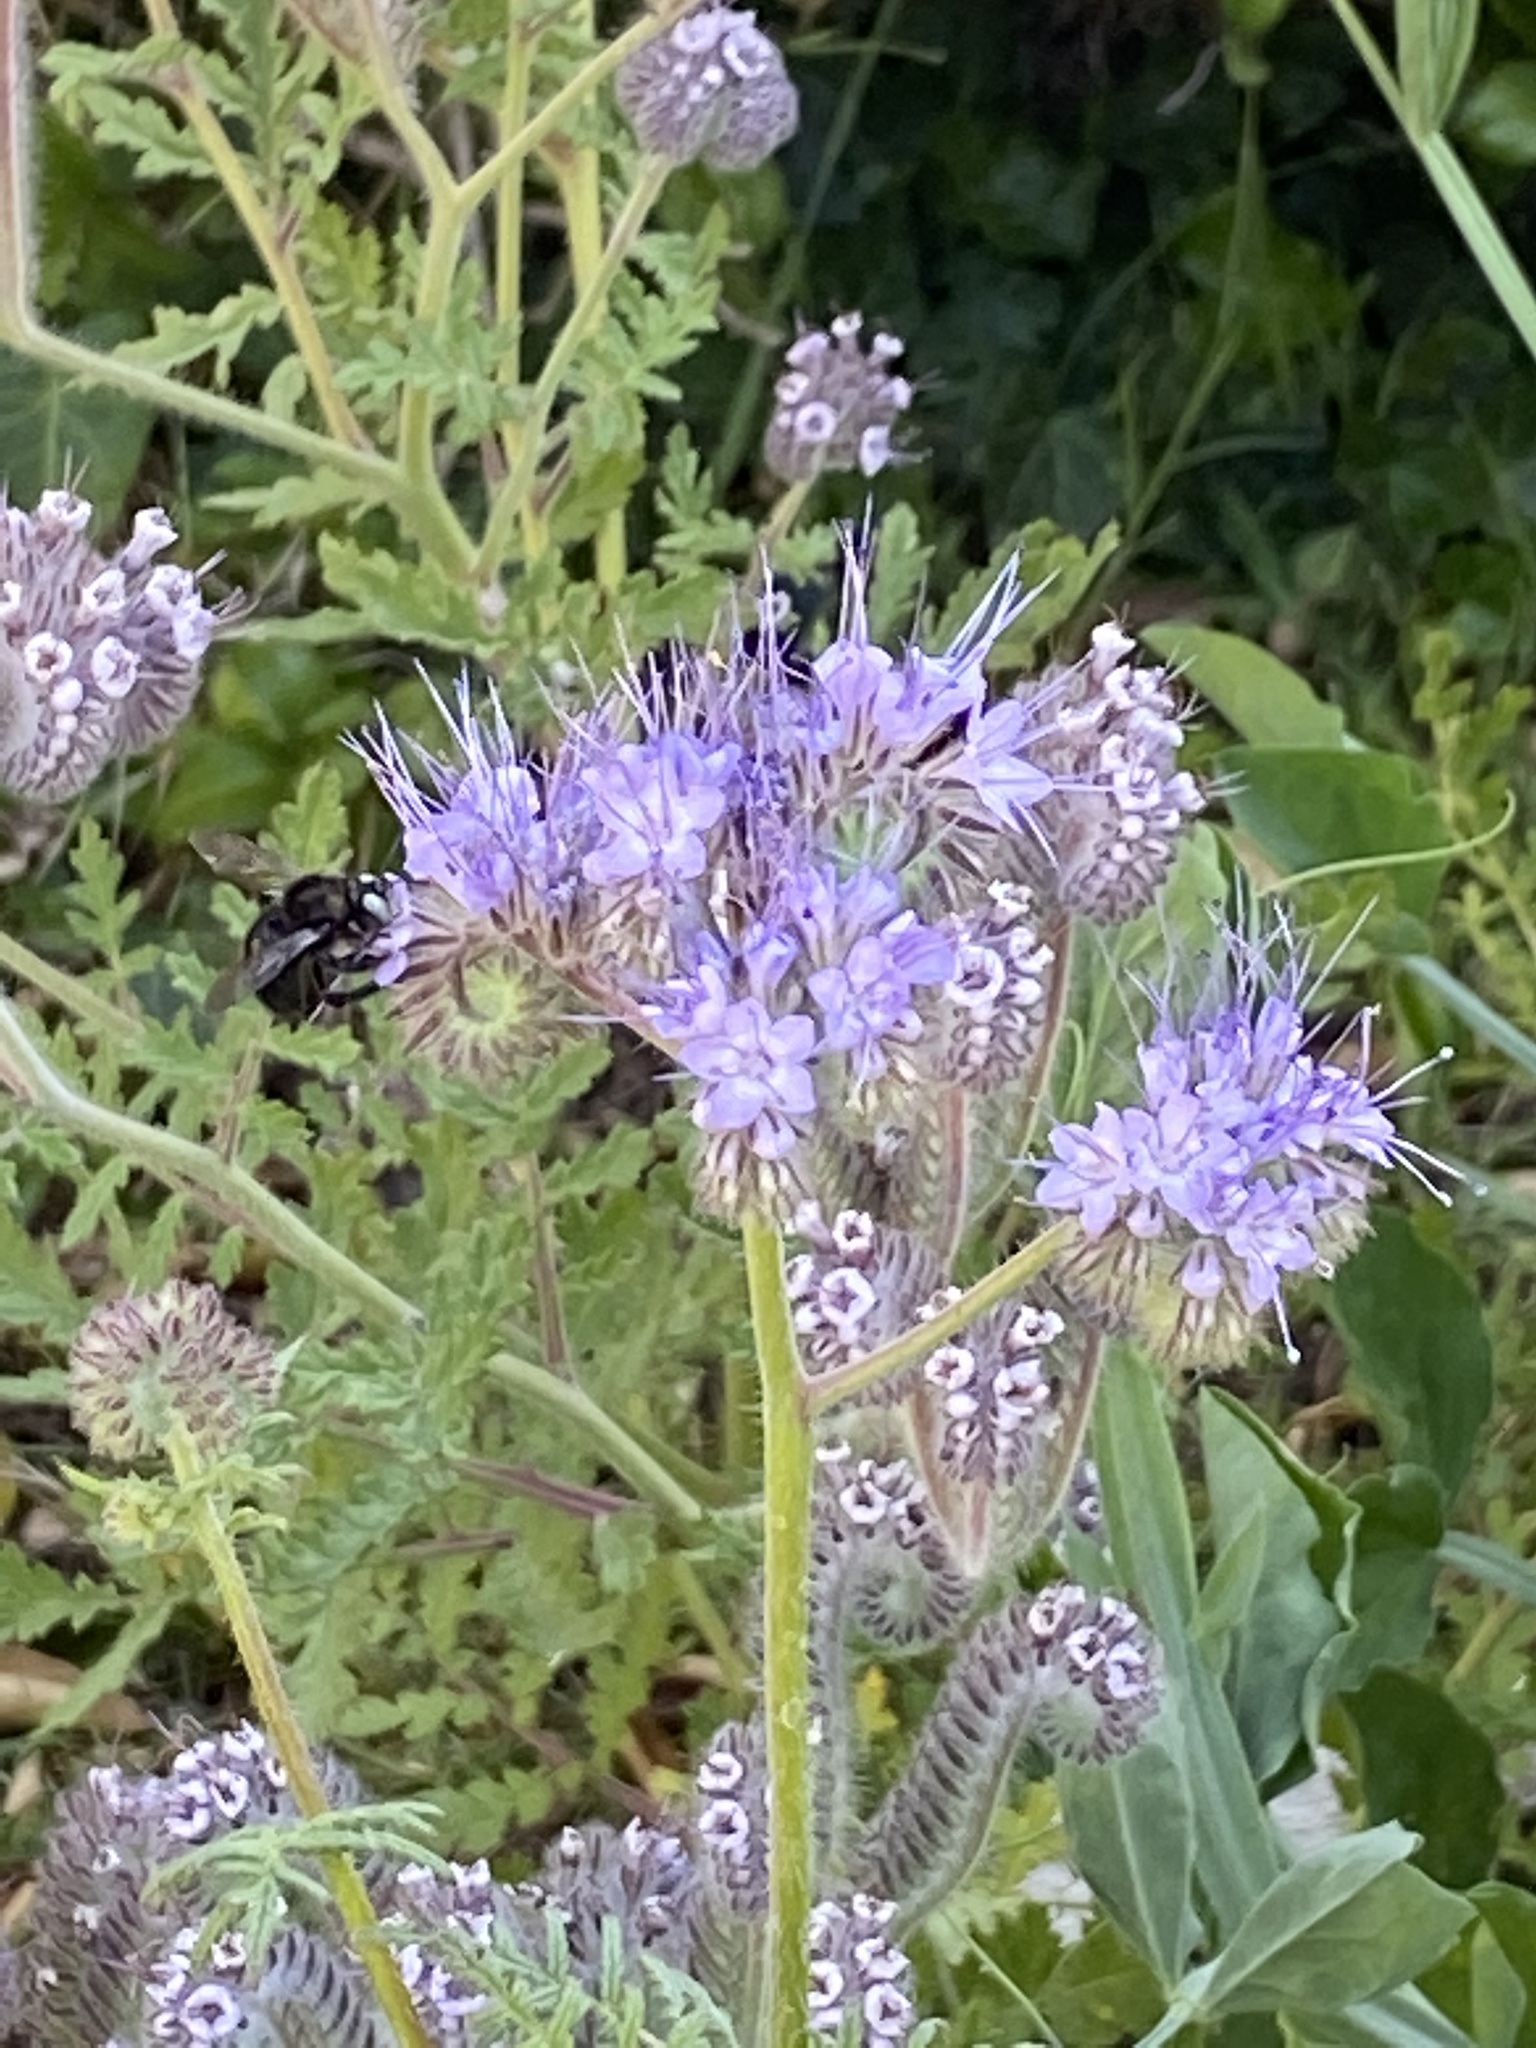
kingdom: Animalia
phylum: Arthropoda
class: Insecta
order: Hymenoptera
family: Apidae
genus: Xylocopa
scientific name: Xylocopa tabaniformis
